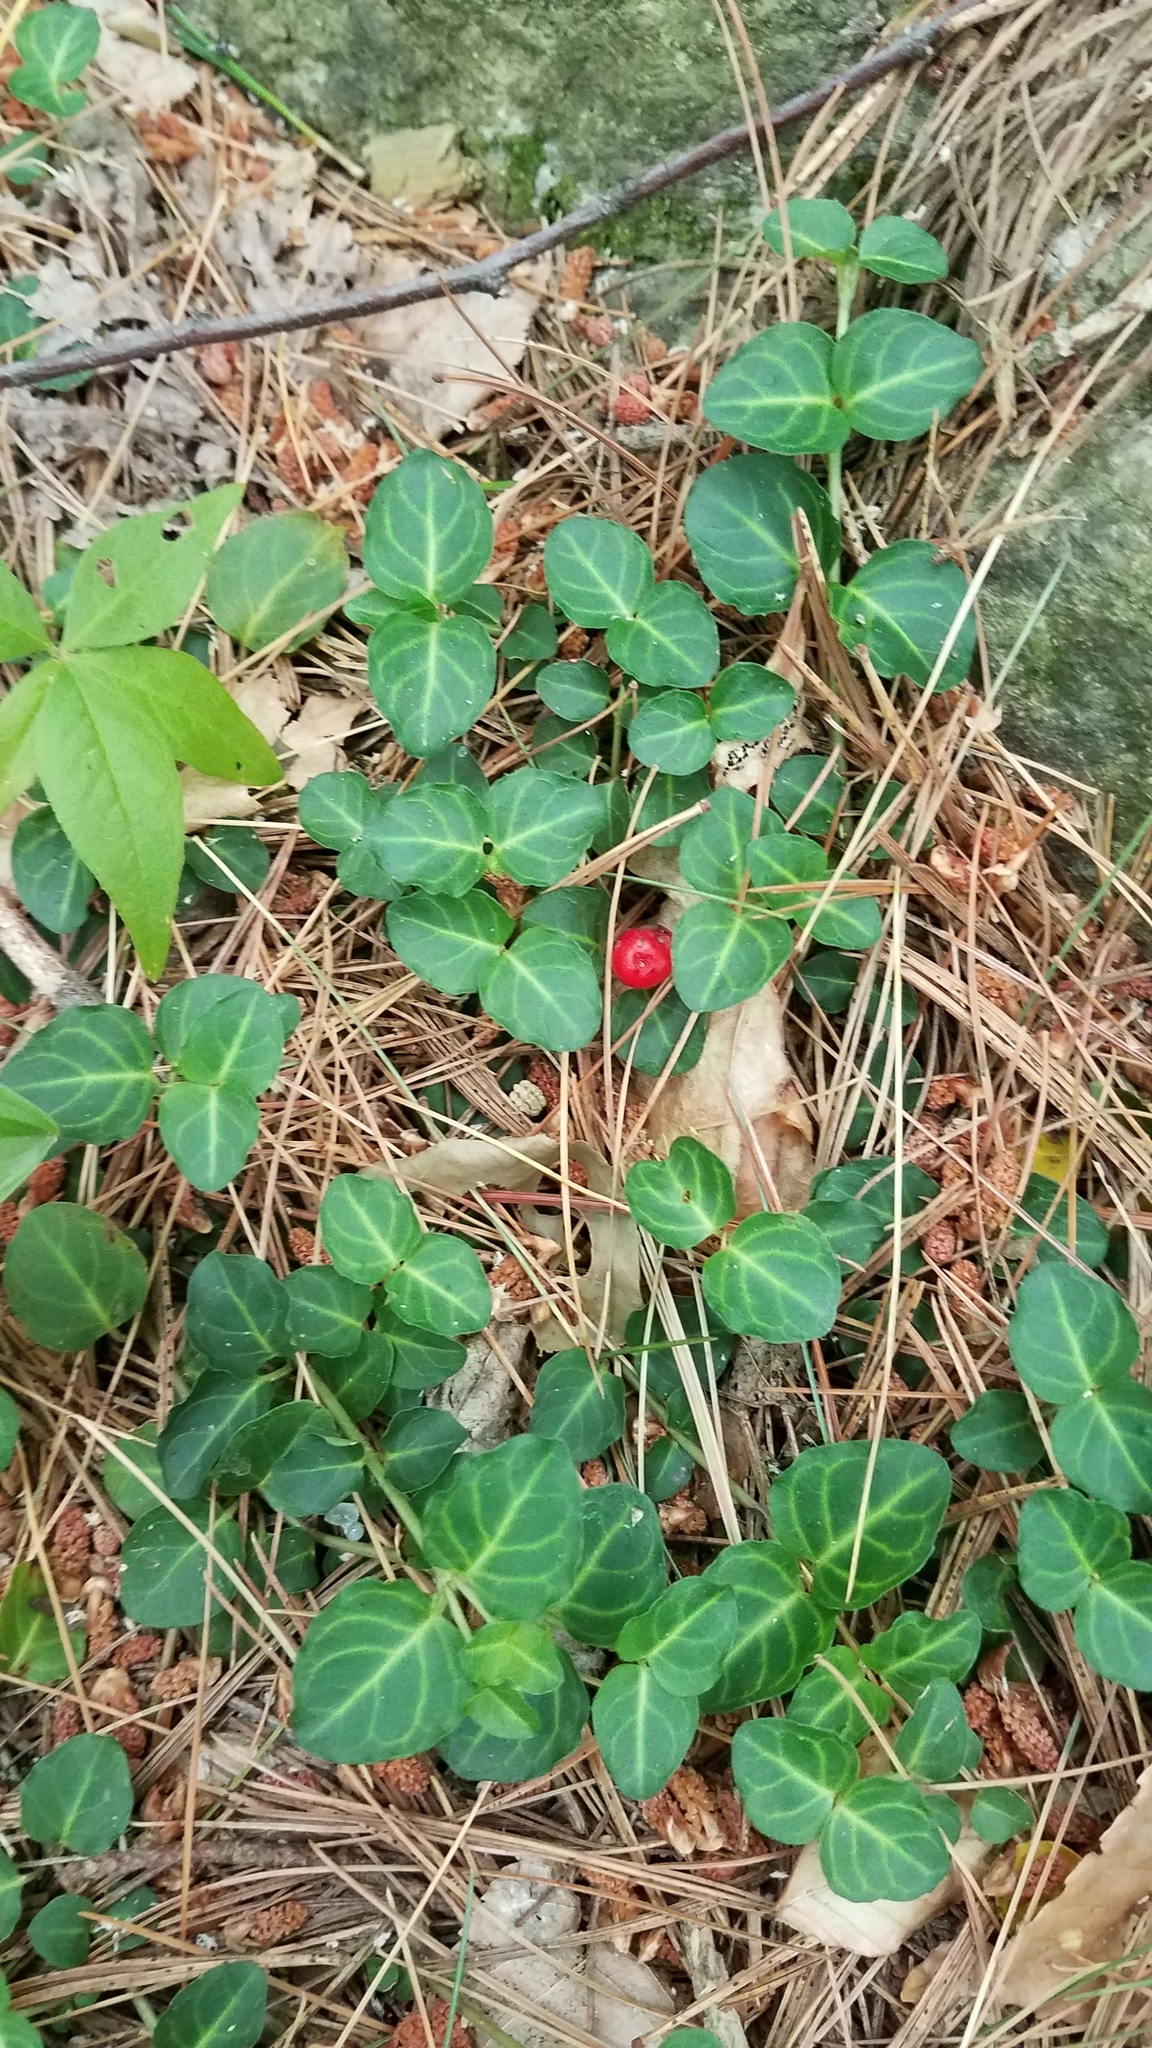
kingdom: Plantae
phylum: Tracheophyta
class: Magnoliopsida
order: Gentianales
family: Rubiaceae
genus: Mitchella
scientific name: Mitchella repens
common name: Partridge-berry
